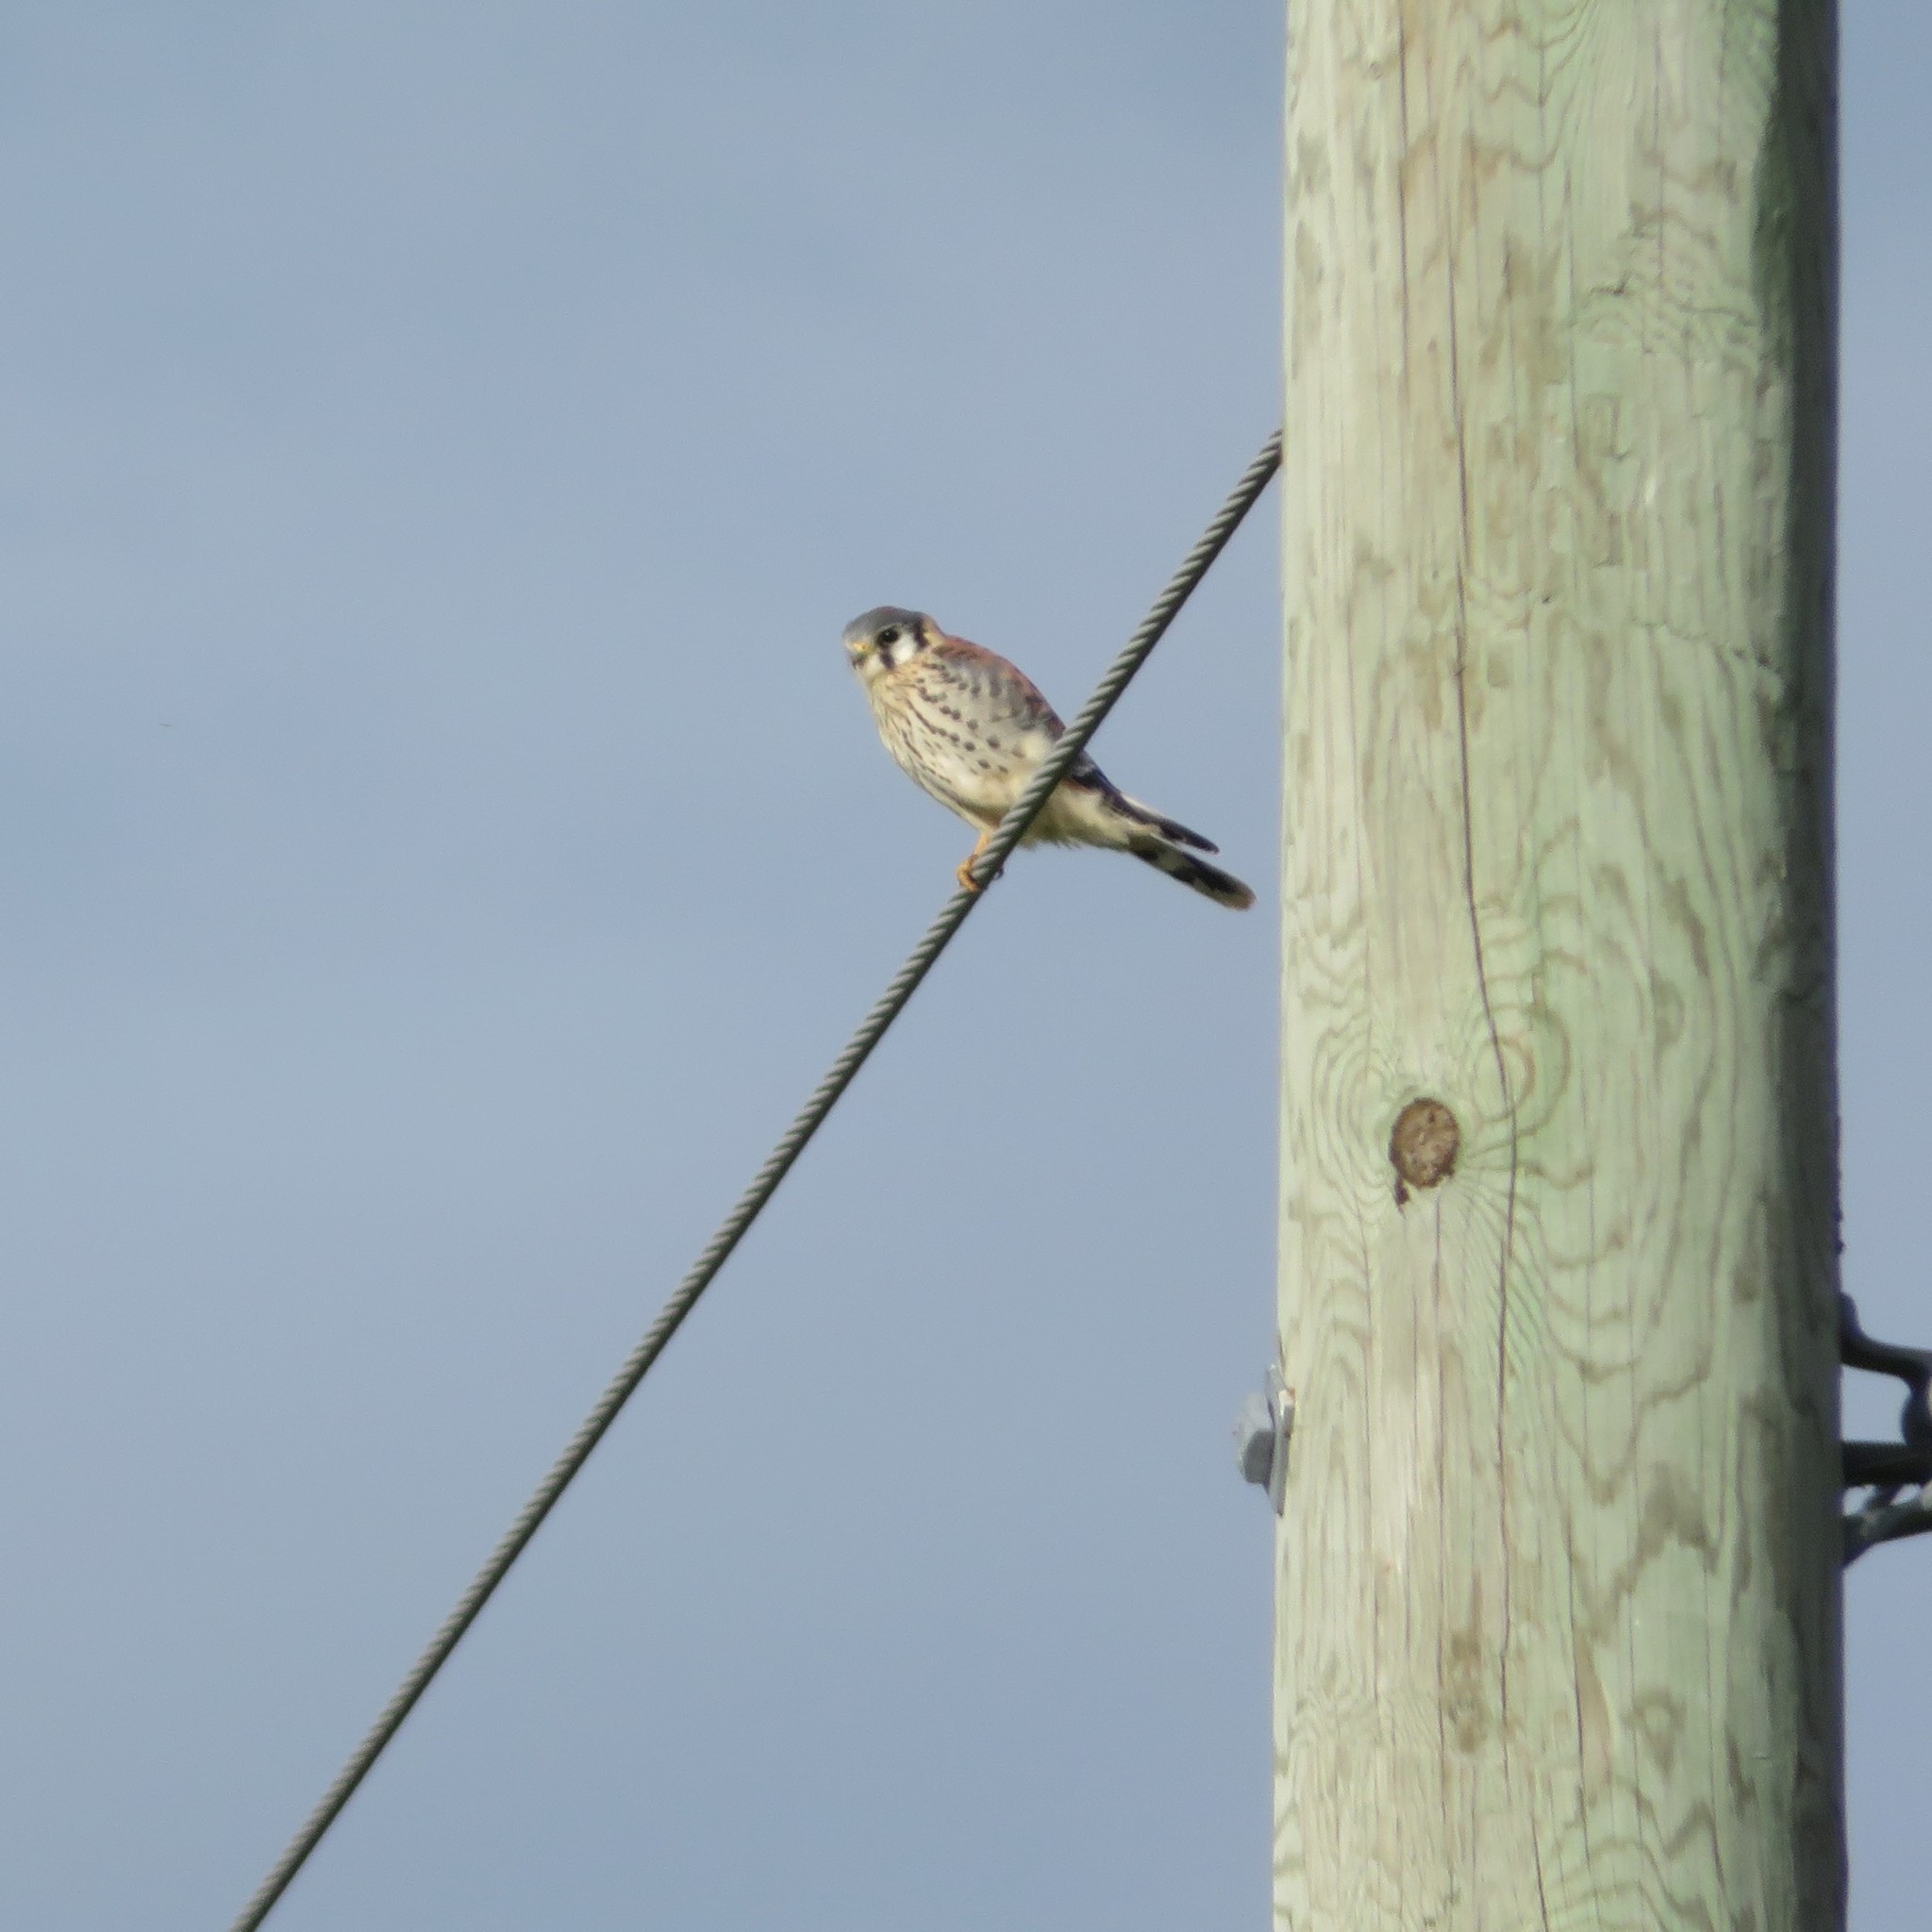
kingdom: Animalia
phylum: Chordata
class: Aves
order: Falconiformes
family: Falconidae
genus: Falco
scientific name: Falco sparverius
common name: American kestrel
